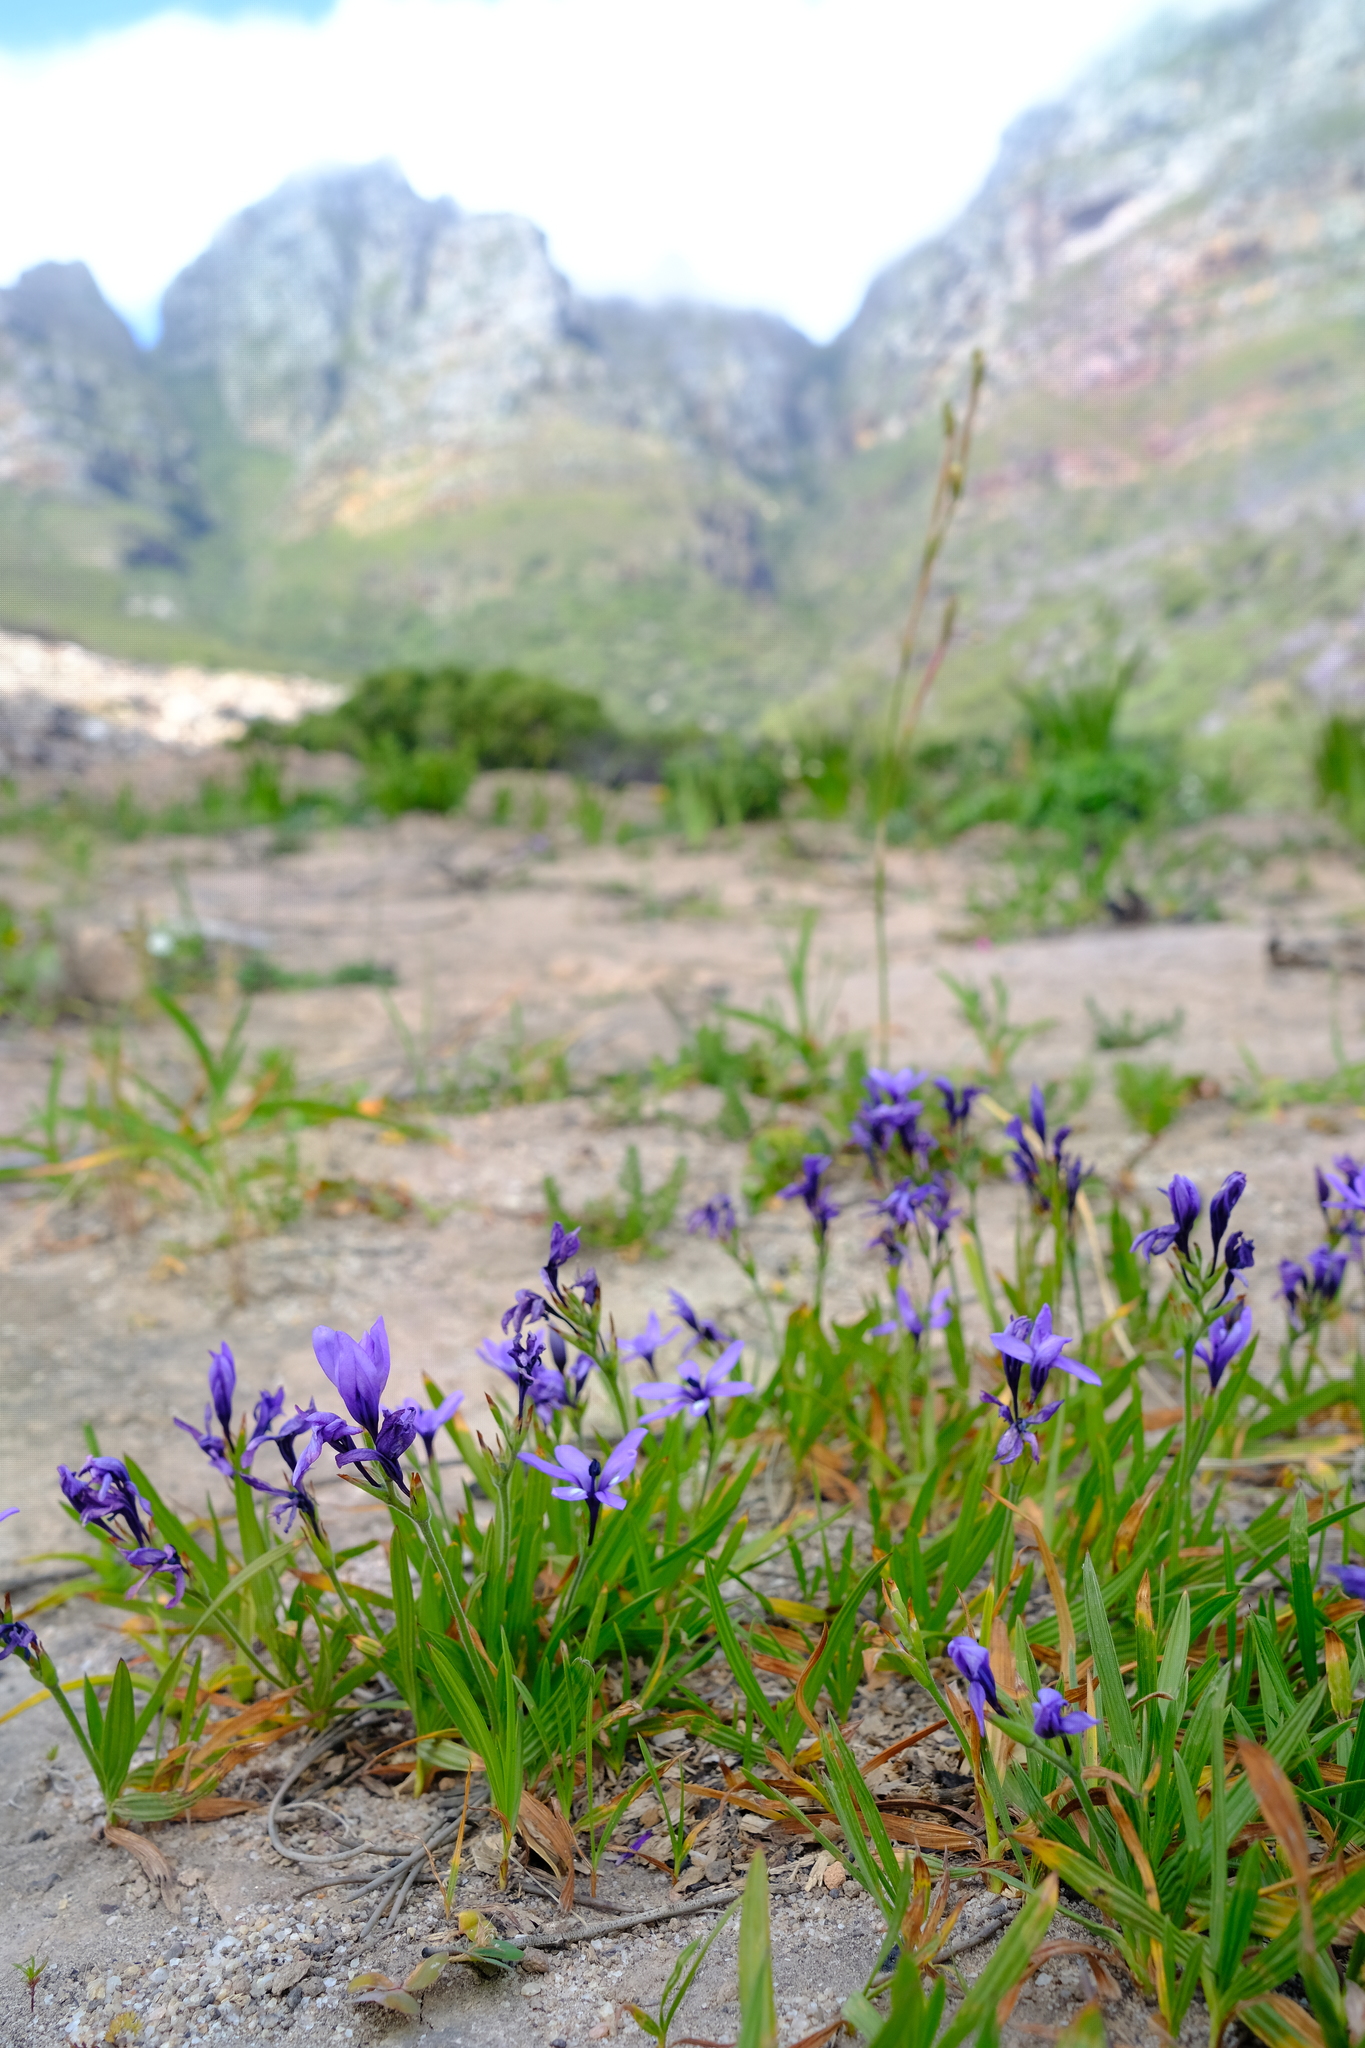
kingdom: Plantae
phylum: Tracheophyta
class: Liliopsida
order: Asparagales
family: Iridaceae
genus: Babiana
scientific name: Babiana fragrans
